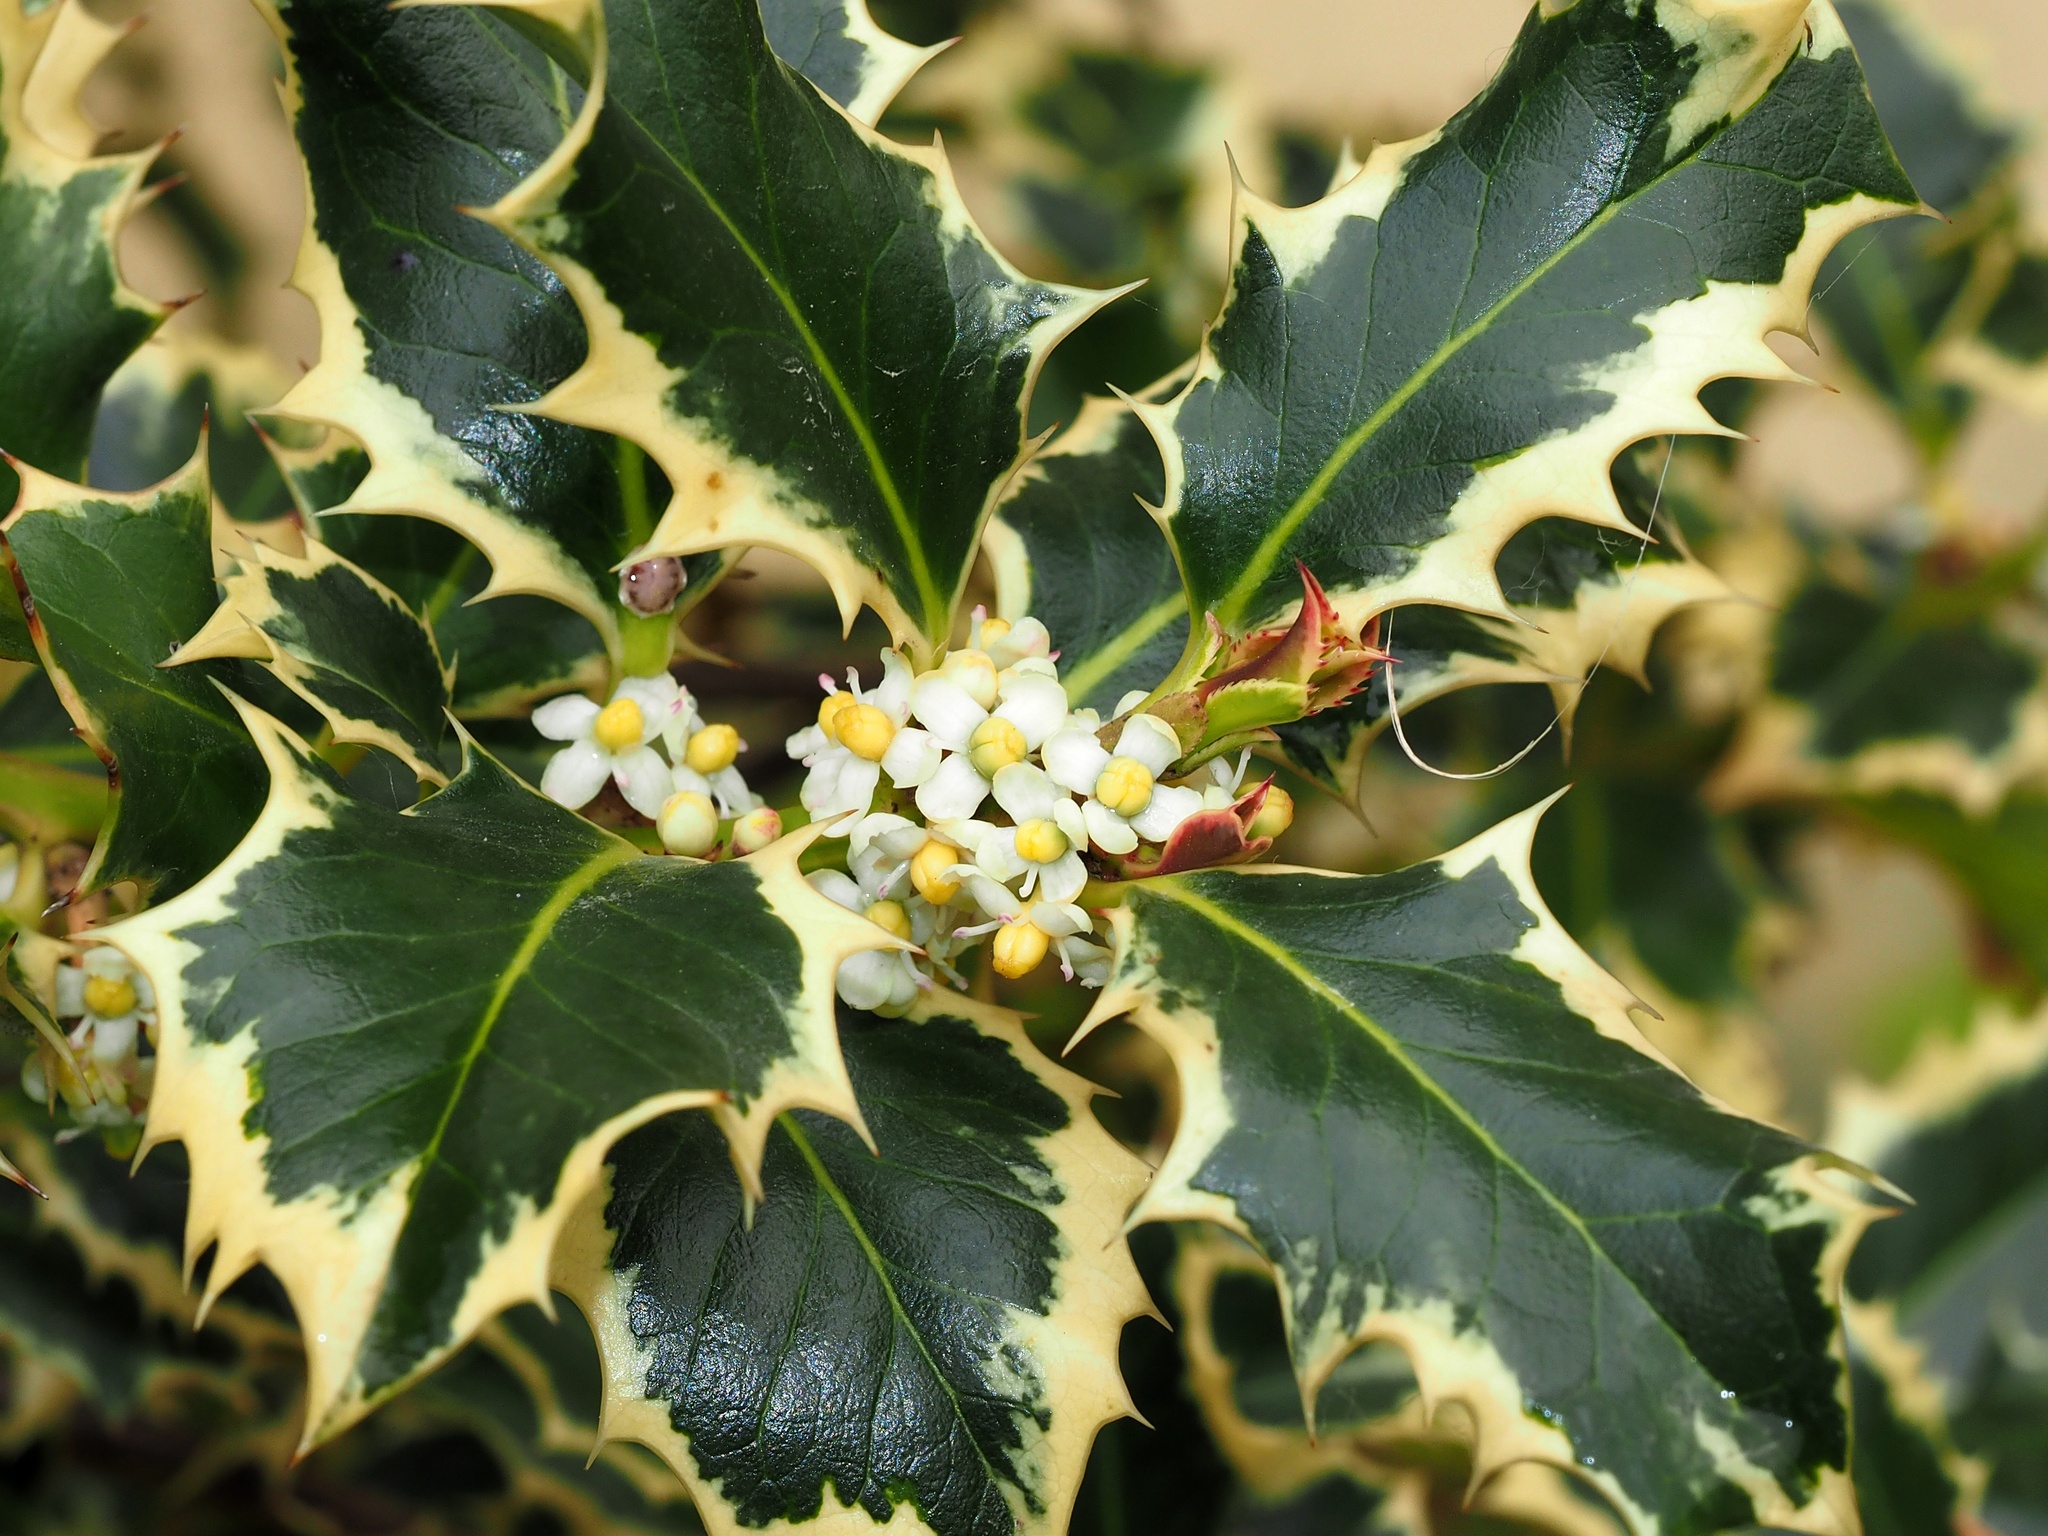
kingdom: Plantae
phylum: Tracheophyta
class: Magnoliopsida
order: Aquifoliales
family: Aquifoliaceae
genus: Ilex
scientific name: Ilex aquifolium
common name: English holly
